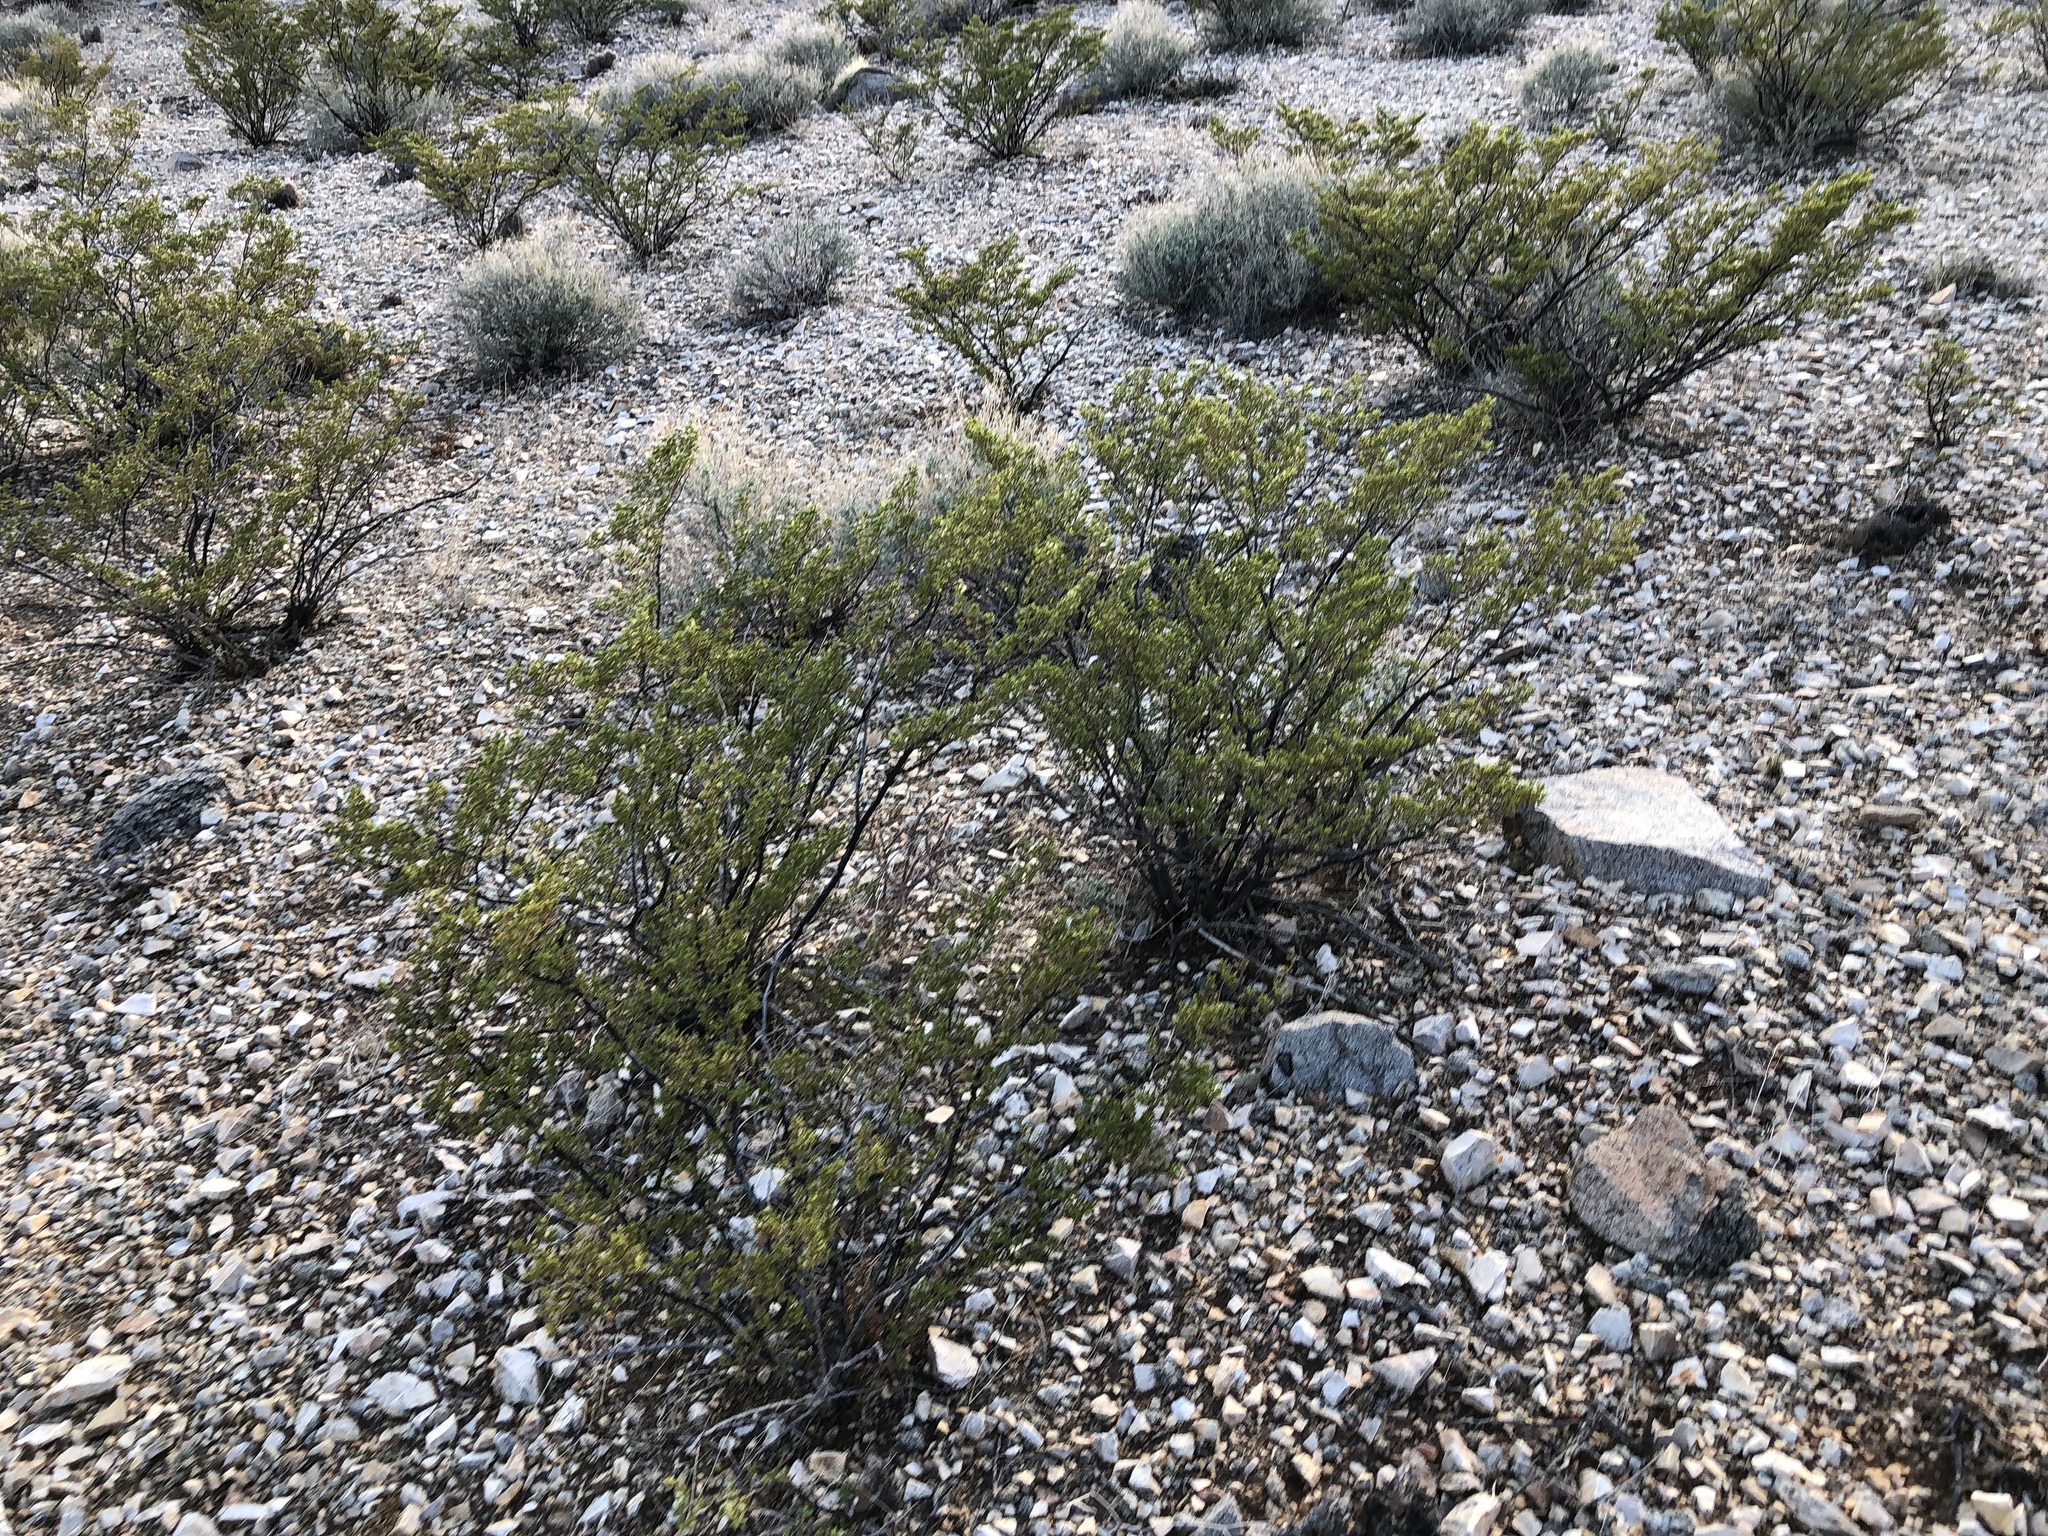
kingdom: Plantae
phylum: Tracheophyta
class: Magnoliopsida
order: Zygophyllales
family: Zygophyllaceae
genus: Larrea
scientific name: Larrea tridentata
